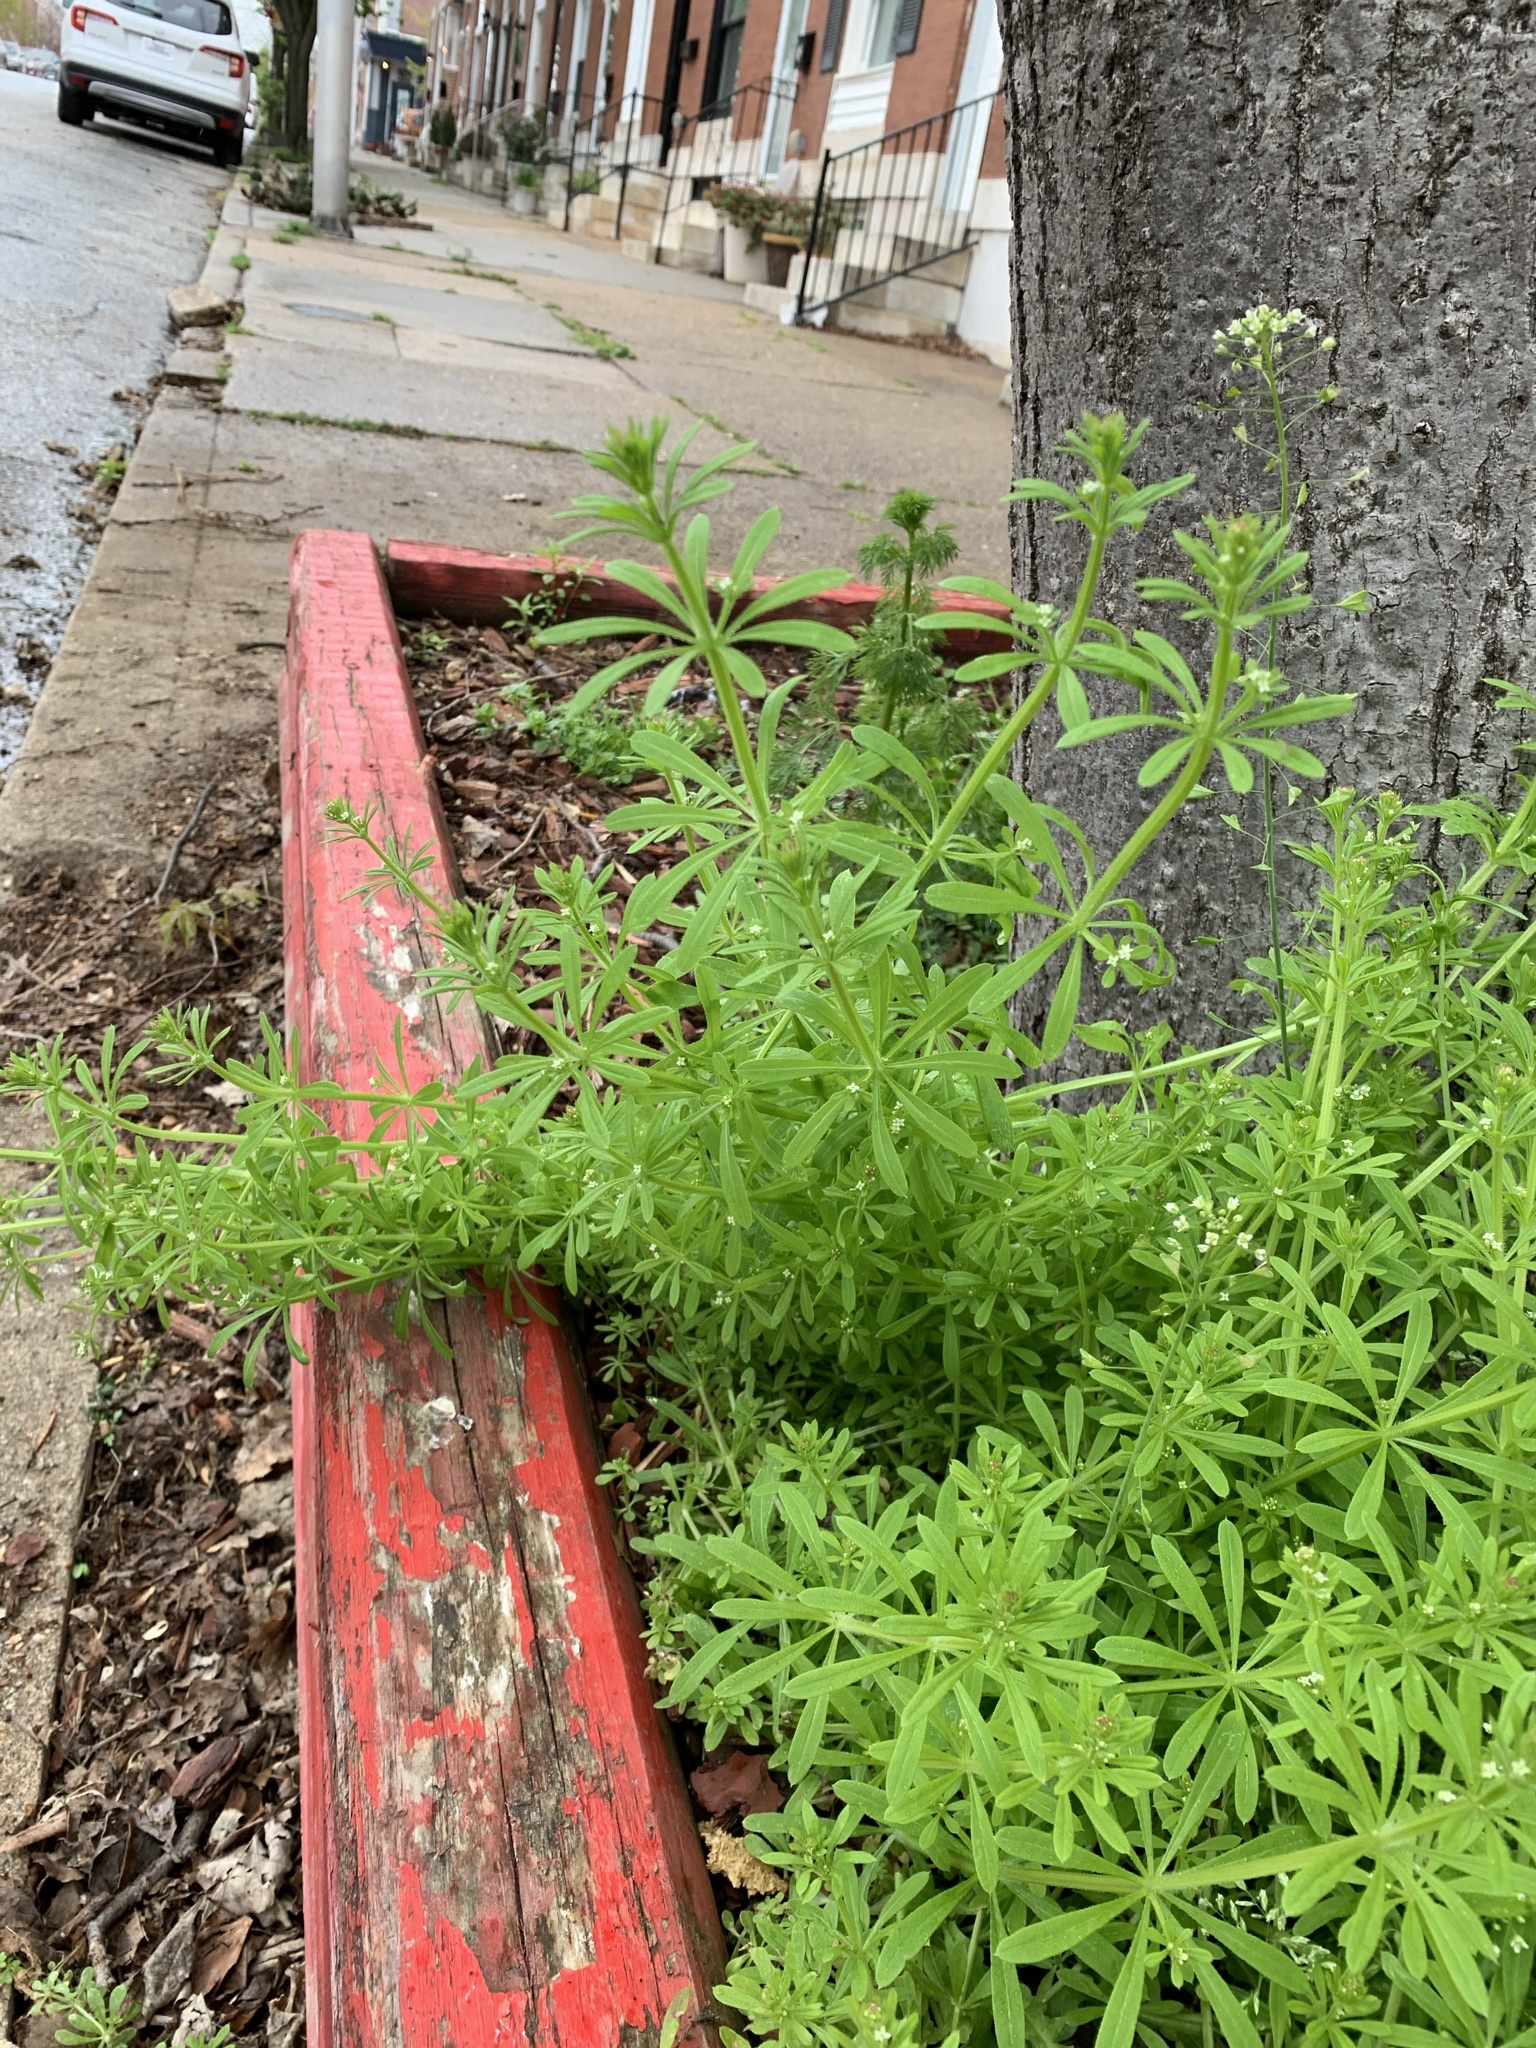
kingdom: Plantae
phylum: Tracheophyta
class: Magnoliopsida
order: Gentianales
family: Rubiaceae
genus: Galium
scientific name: Galium aparine
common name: Cleavers
